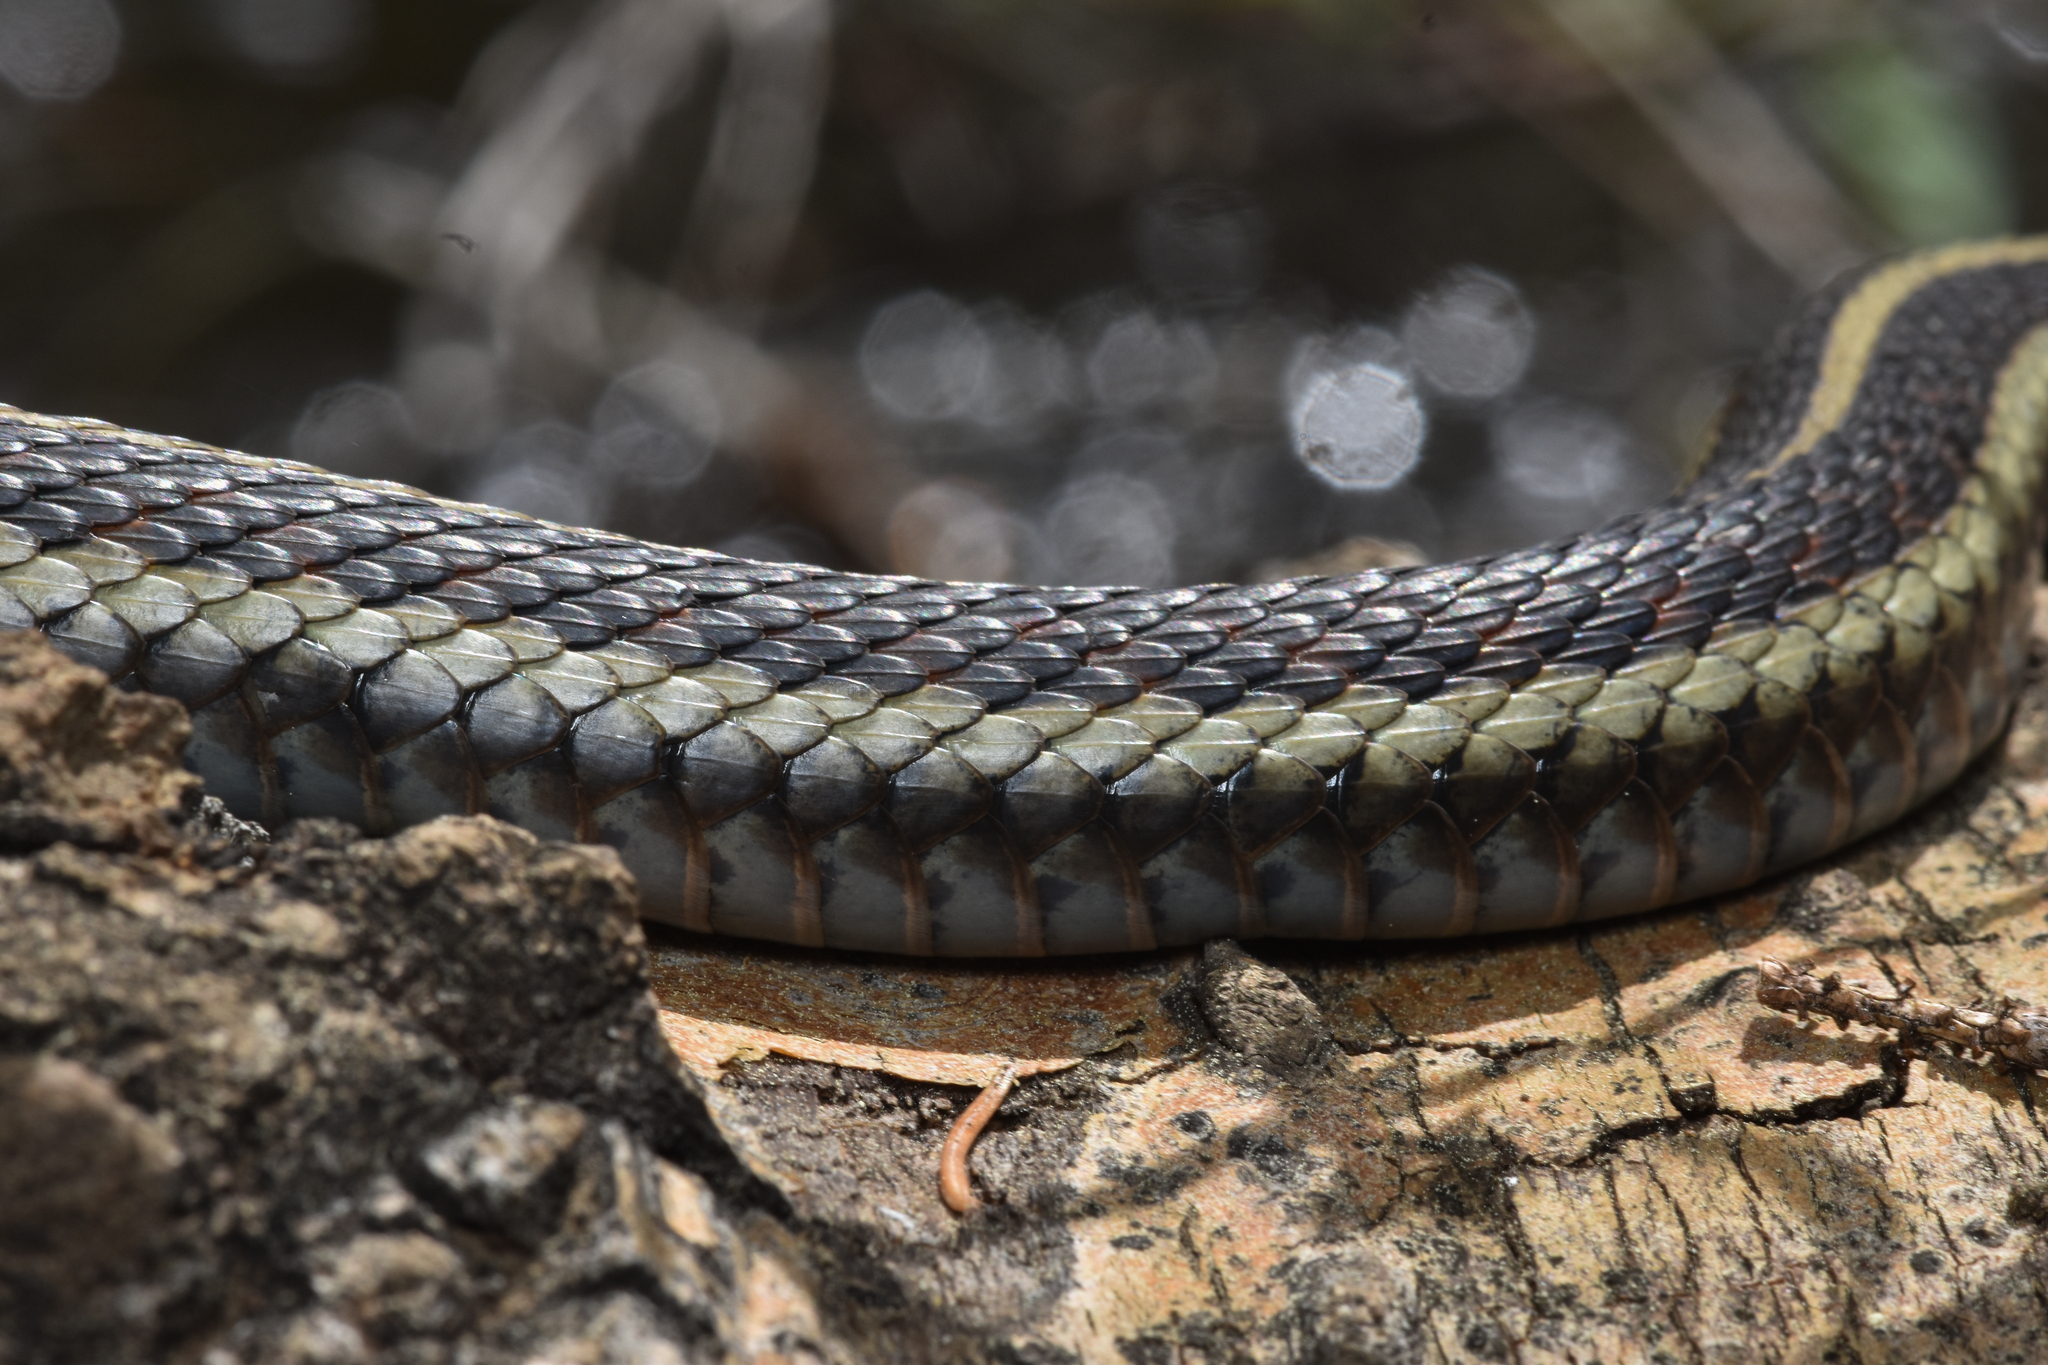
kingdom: Animalia
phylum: Chordata
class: Squamata
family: Colubridae
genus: Thamnophis
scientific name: Thamnophis sirtalis
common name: Common garter snake
